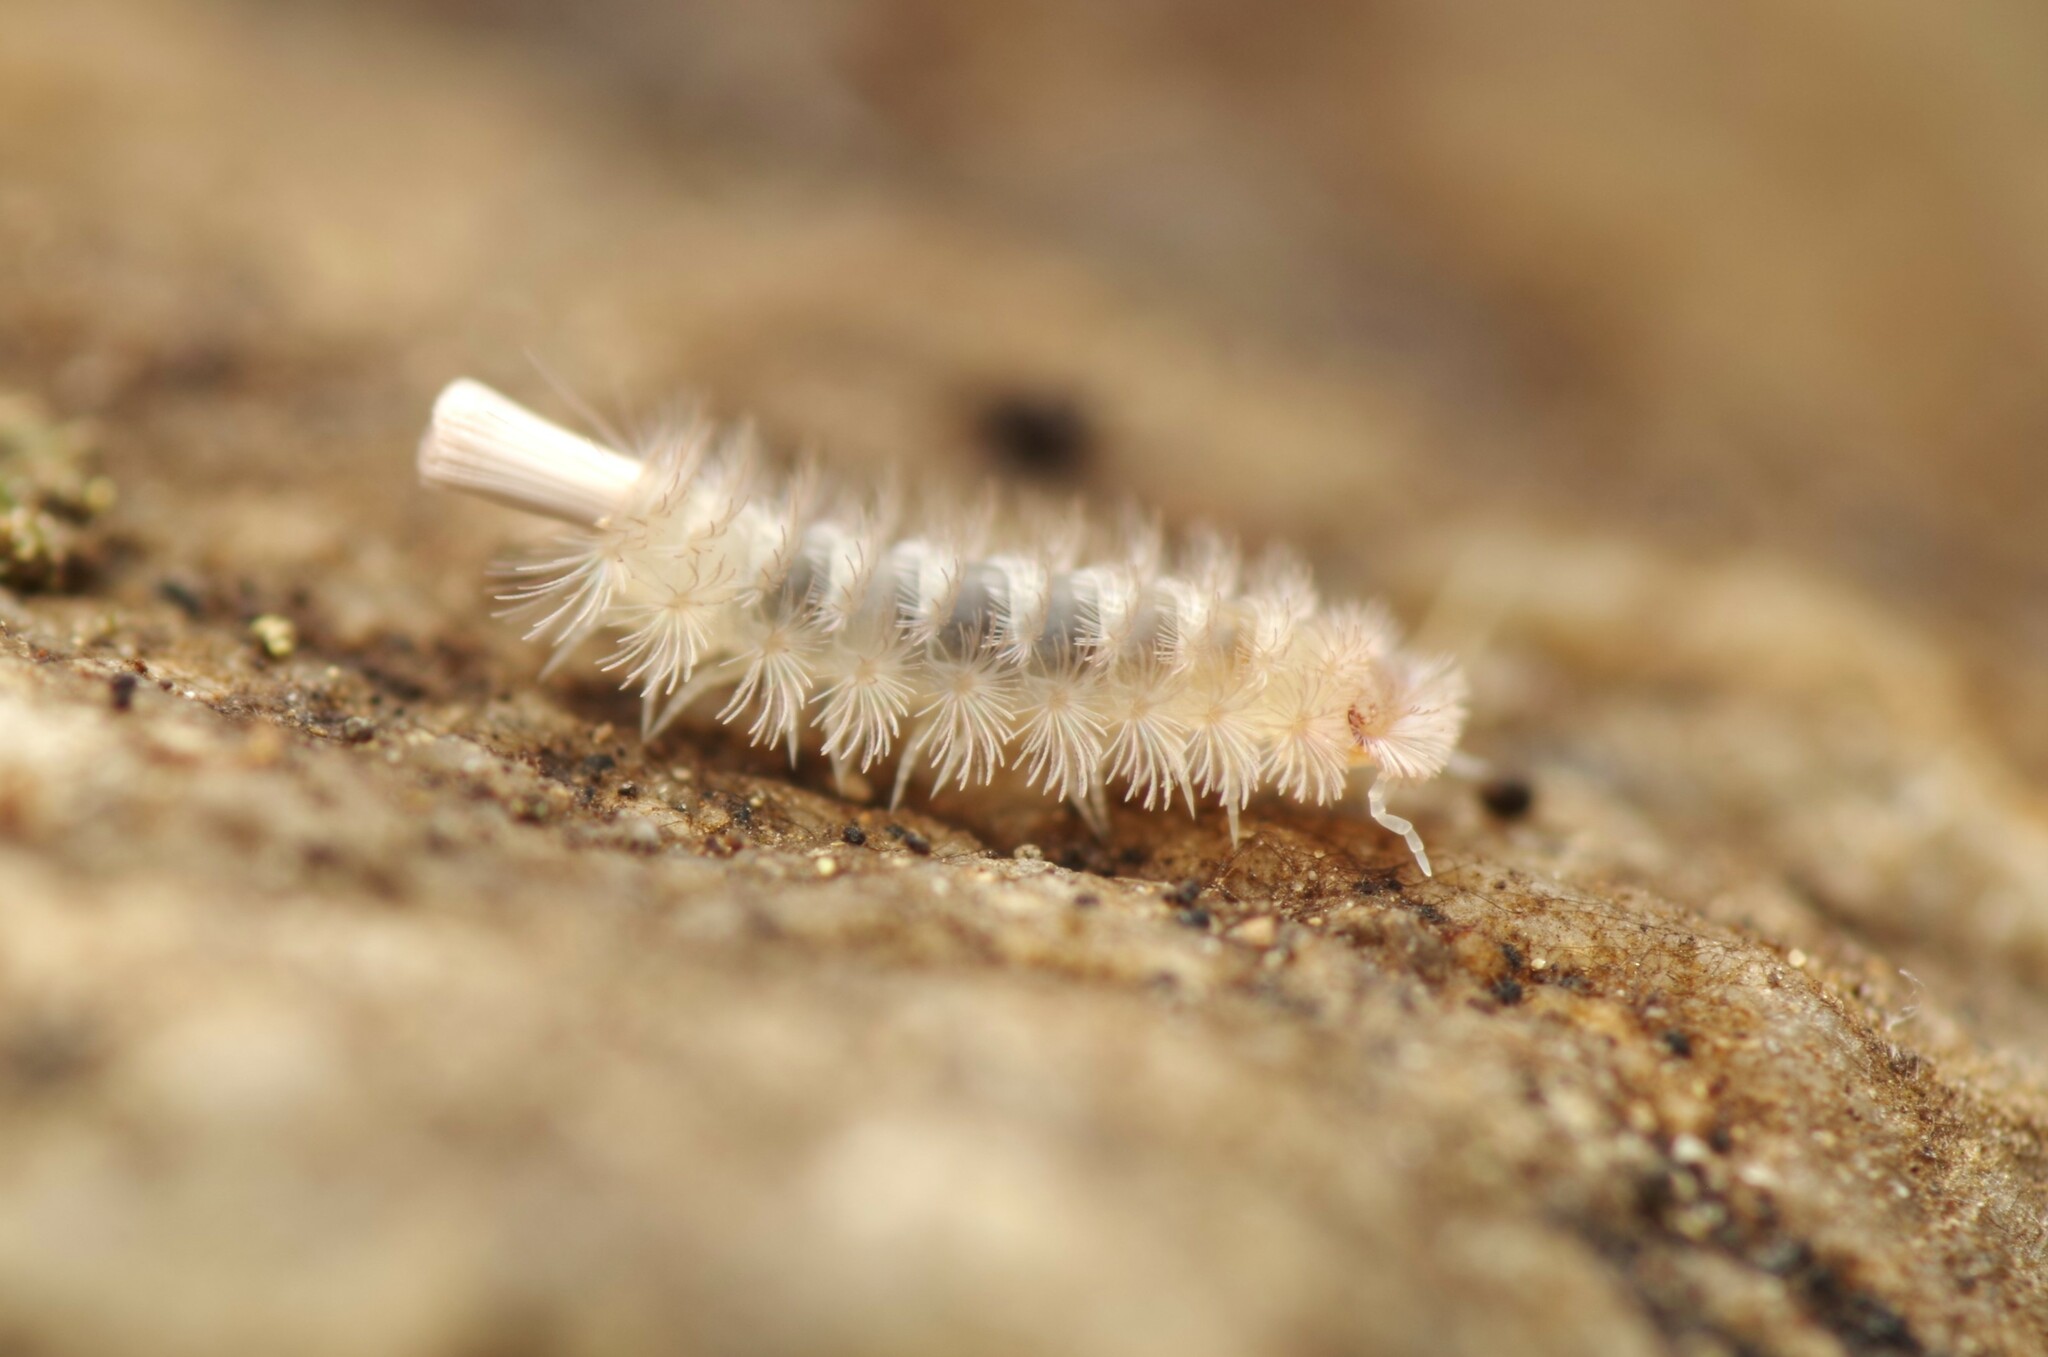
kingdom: Animalia
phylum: Arthropoda
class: Diplopoda
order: Polyxenida
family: Lophoproctidae
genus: Lophoproctus
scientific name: Lophoproctus lucidus
